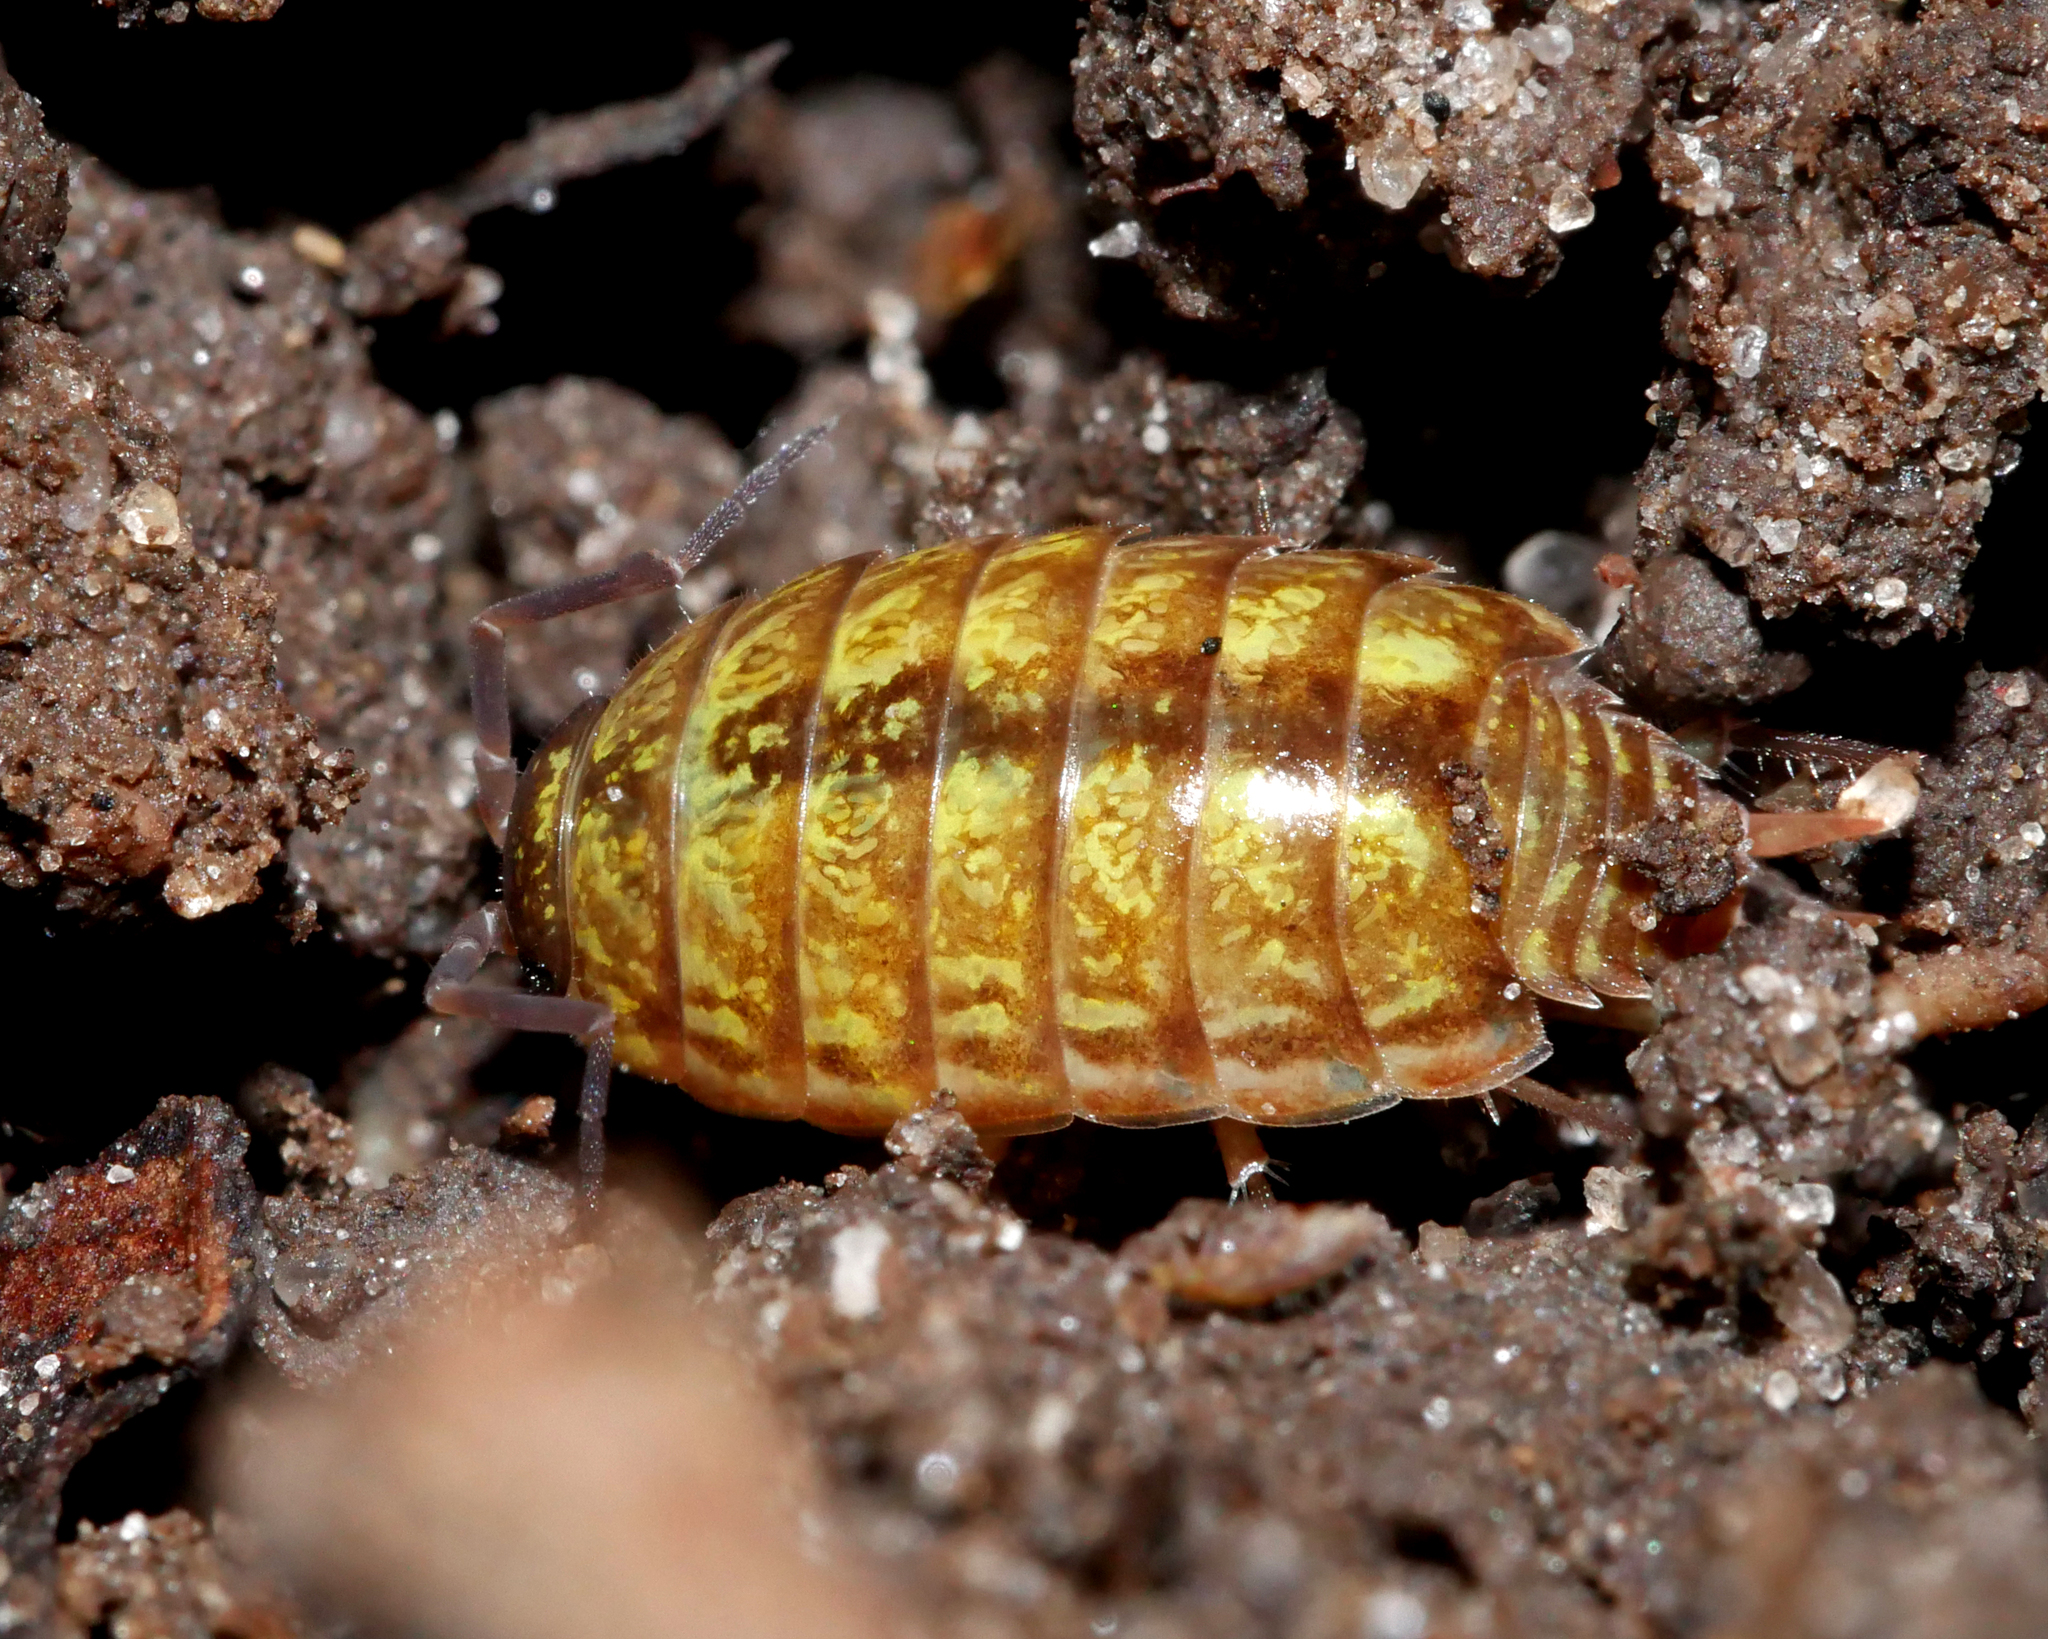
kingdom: Animalia
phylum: Arthropoda
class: Malacostraca
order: Isopoda
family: Philosciidae
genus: Philoscia
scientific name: Philoscia muscorum
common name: Common striped woodlouse
